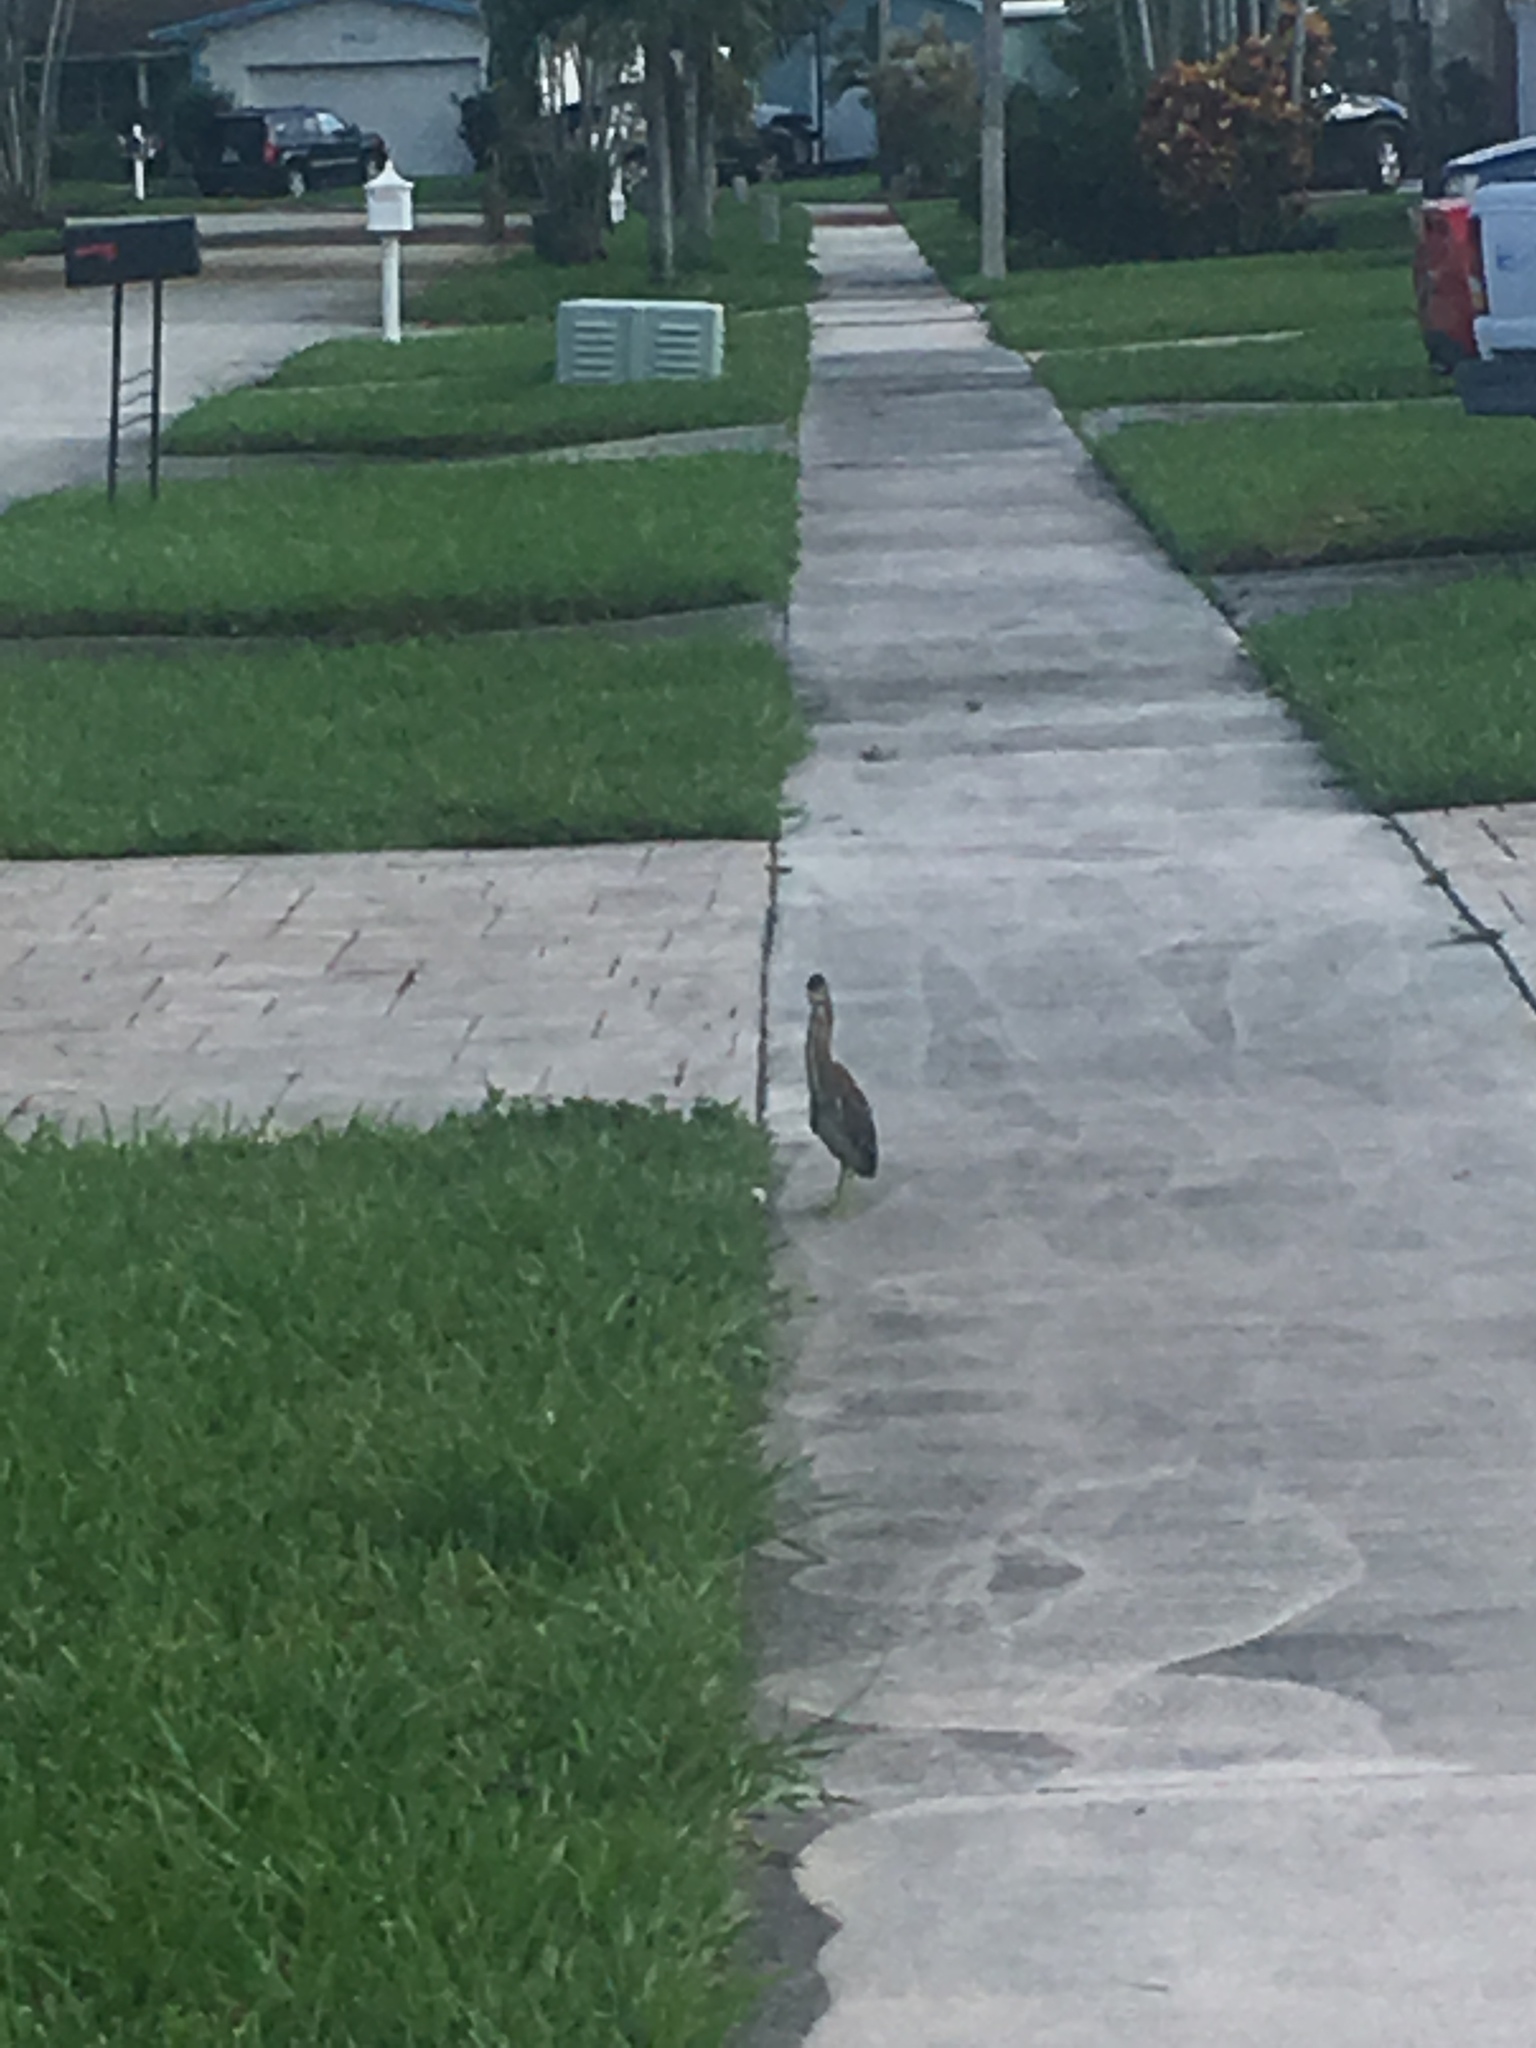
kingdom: Animalia
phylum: Chordata
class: Aves
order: Pelecaniformes
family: Ardeidae
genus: Butorides
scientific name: Butorides virescens
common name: Green heron
